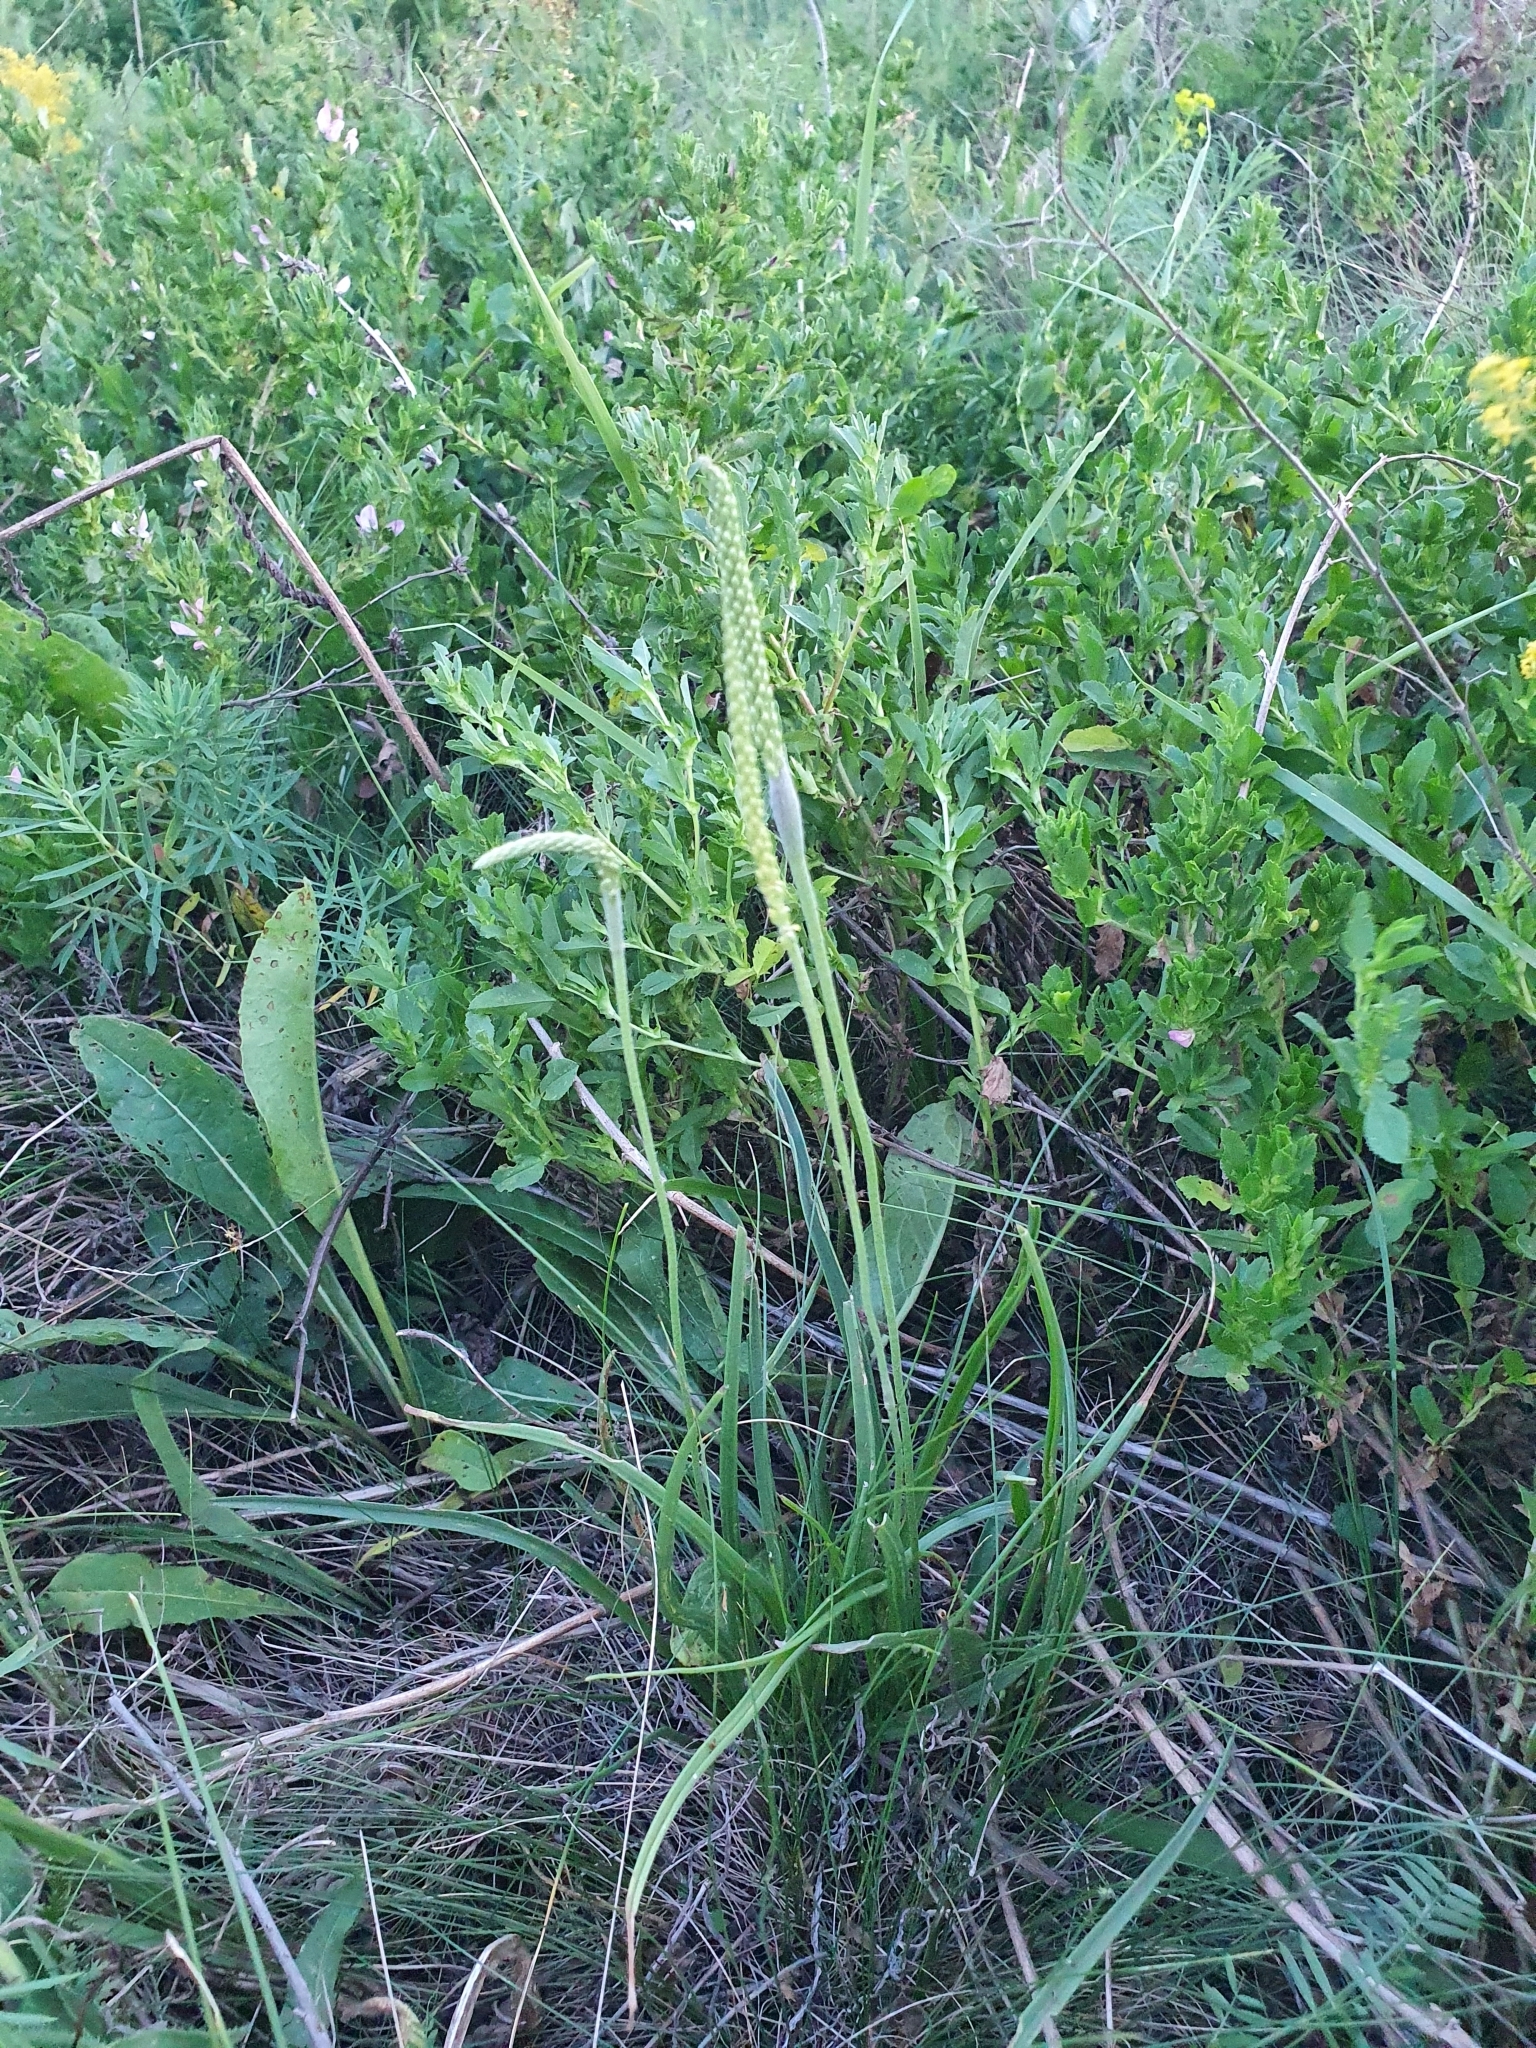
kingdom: Plantae
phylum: Tracheophyta
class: Magnoliopsida
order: Lamiales
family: Plantaginaceae
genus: Plantago
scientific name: Plantago salsa
